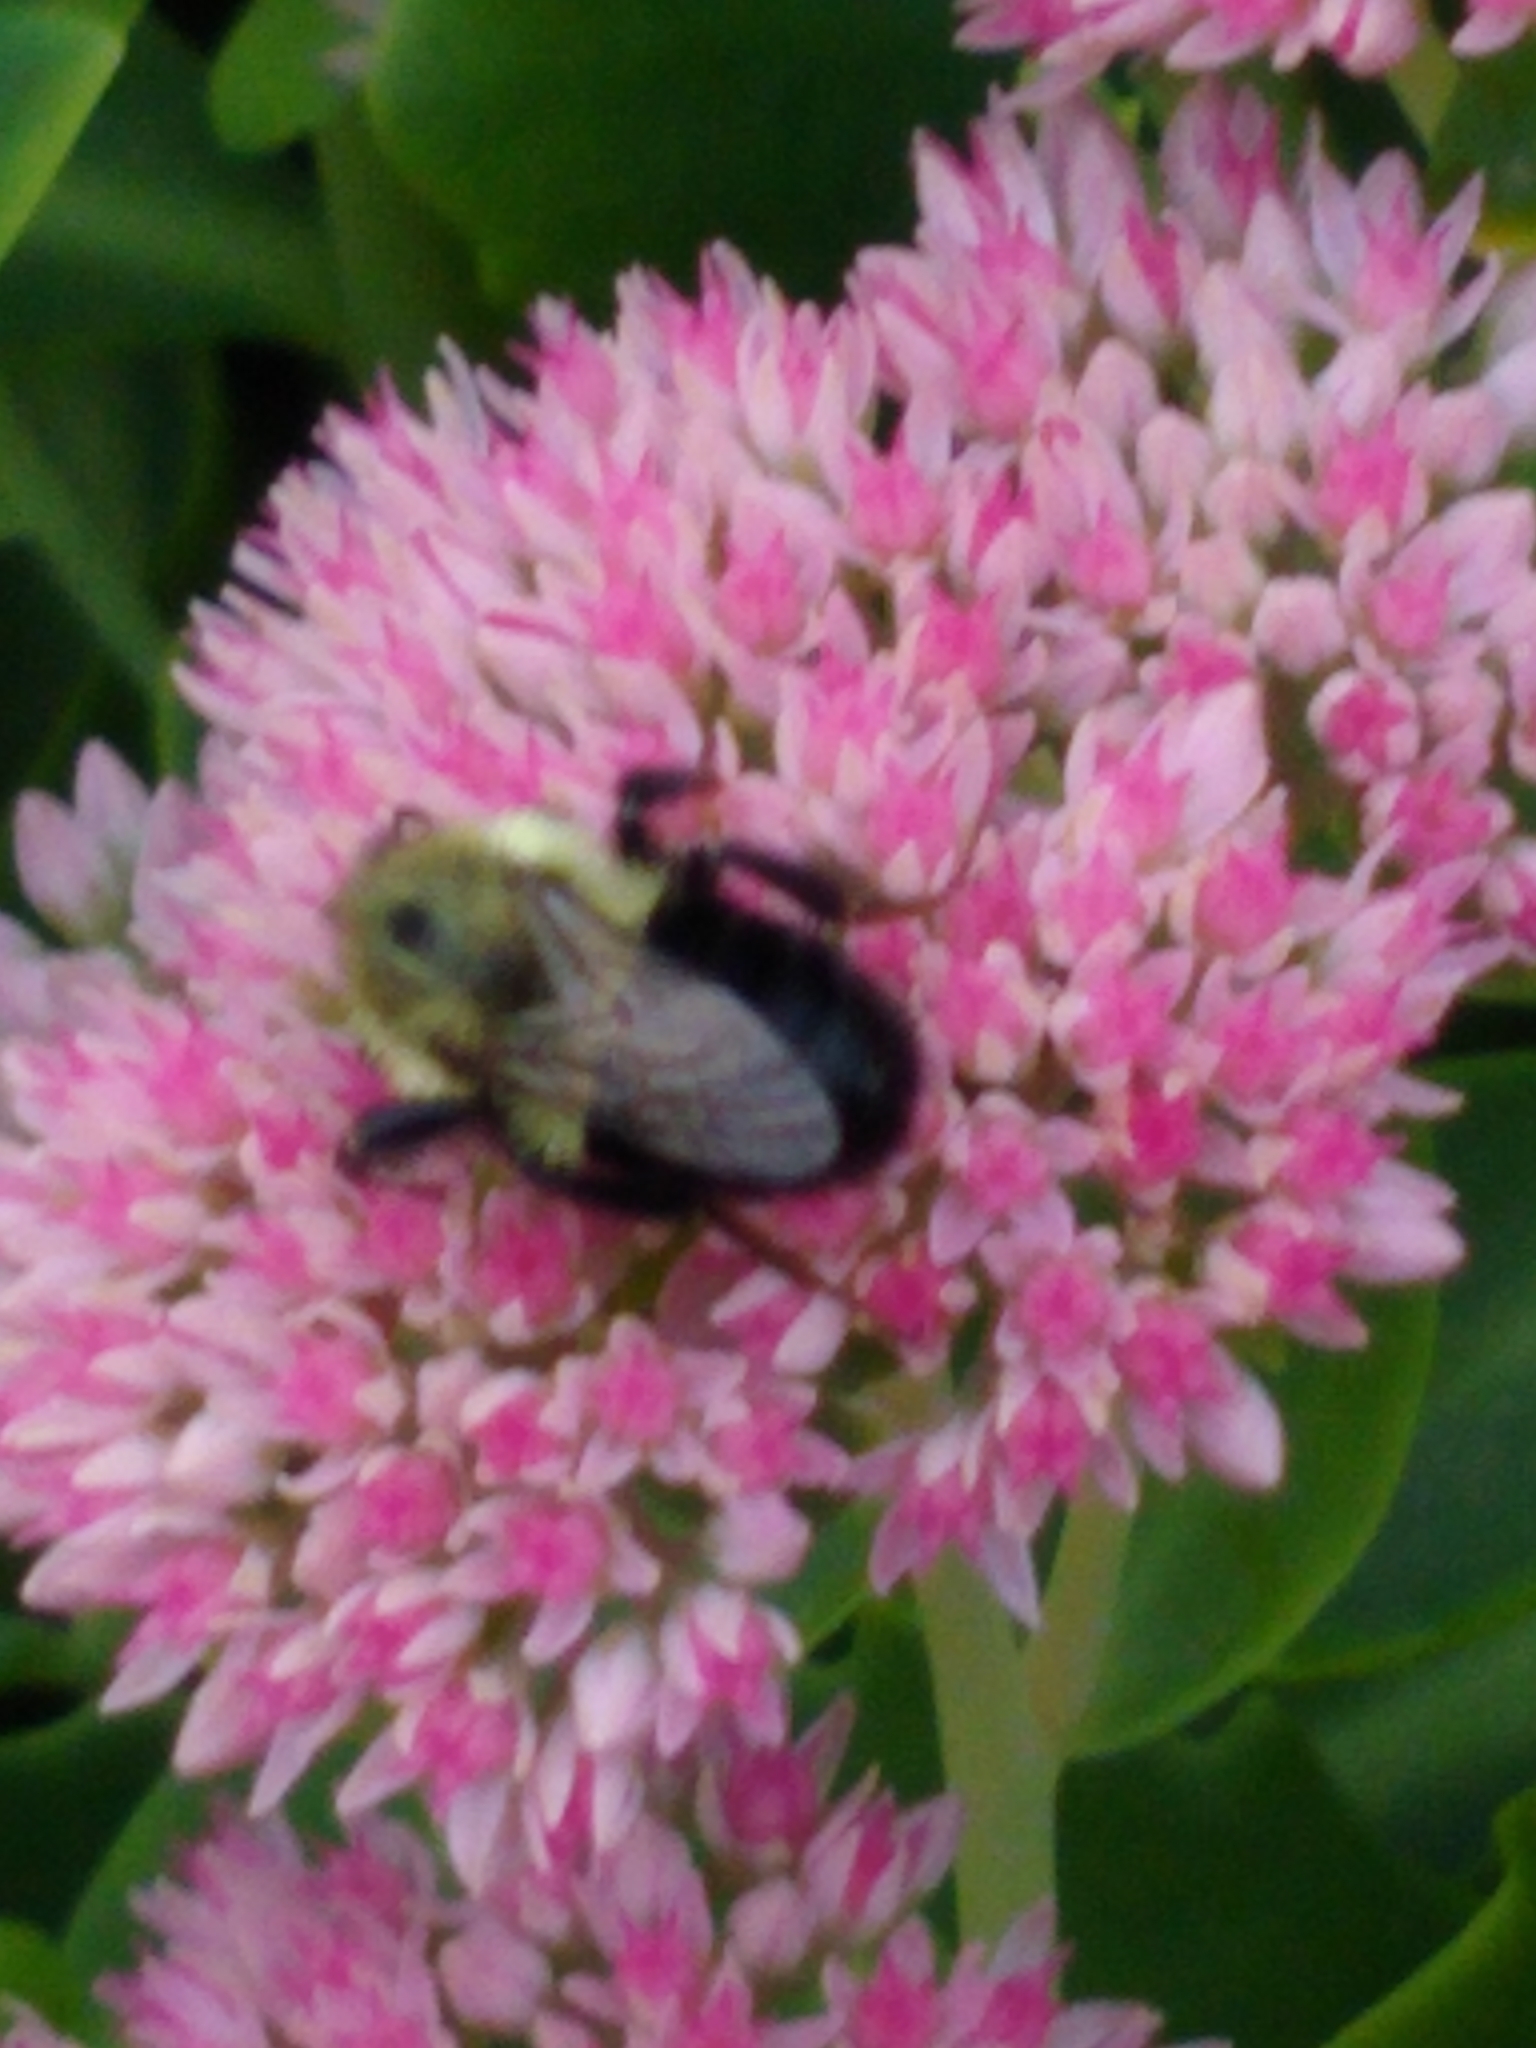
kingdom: Animalia
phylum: Arthropoda
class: Insecta
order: Hymenoptera
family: Apidae
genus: Bombus
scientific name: Bombus impatiens
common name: Common eastern bumble bee
